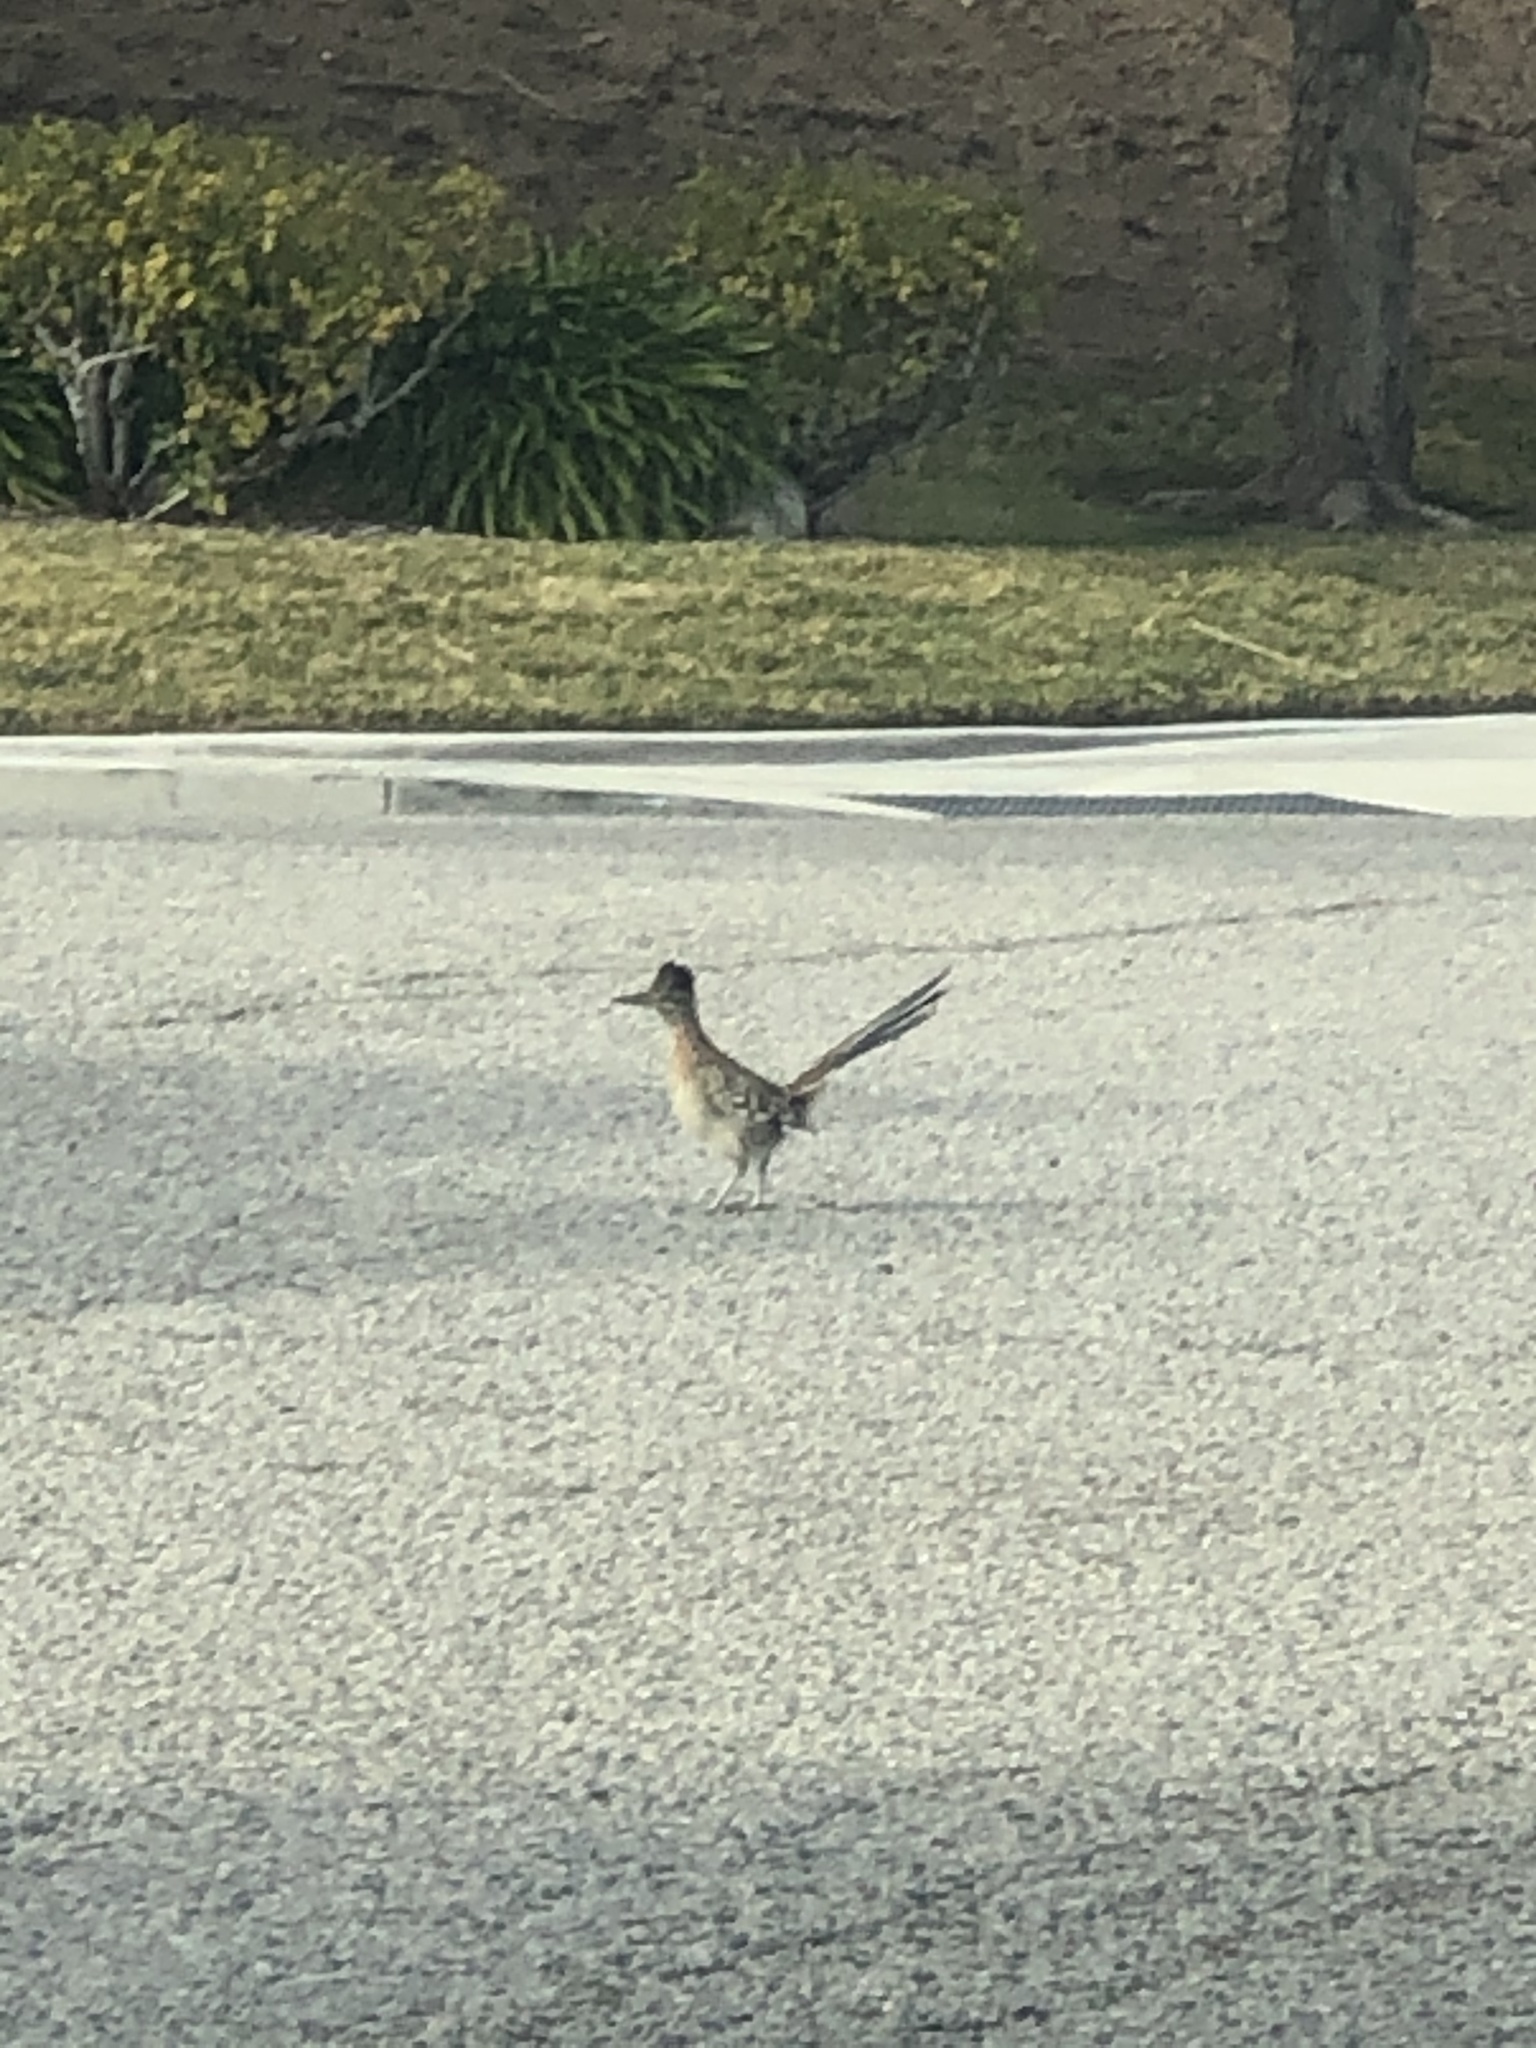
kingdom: Animalia
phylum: Chordata
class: Aves
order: Cuculiformes
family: Cuculidae
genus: Geococcyx
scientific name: Geococcyx californianus
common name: Greater roadrunner
